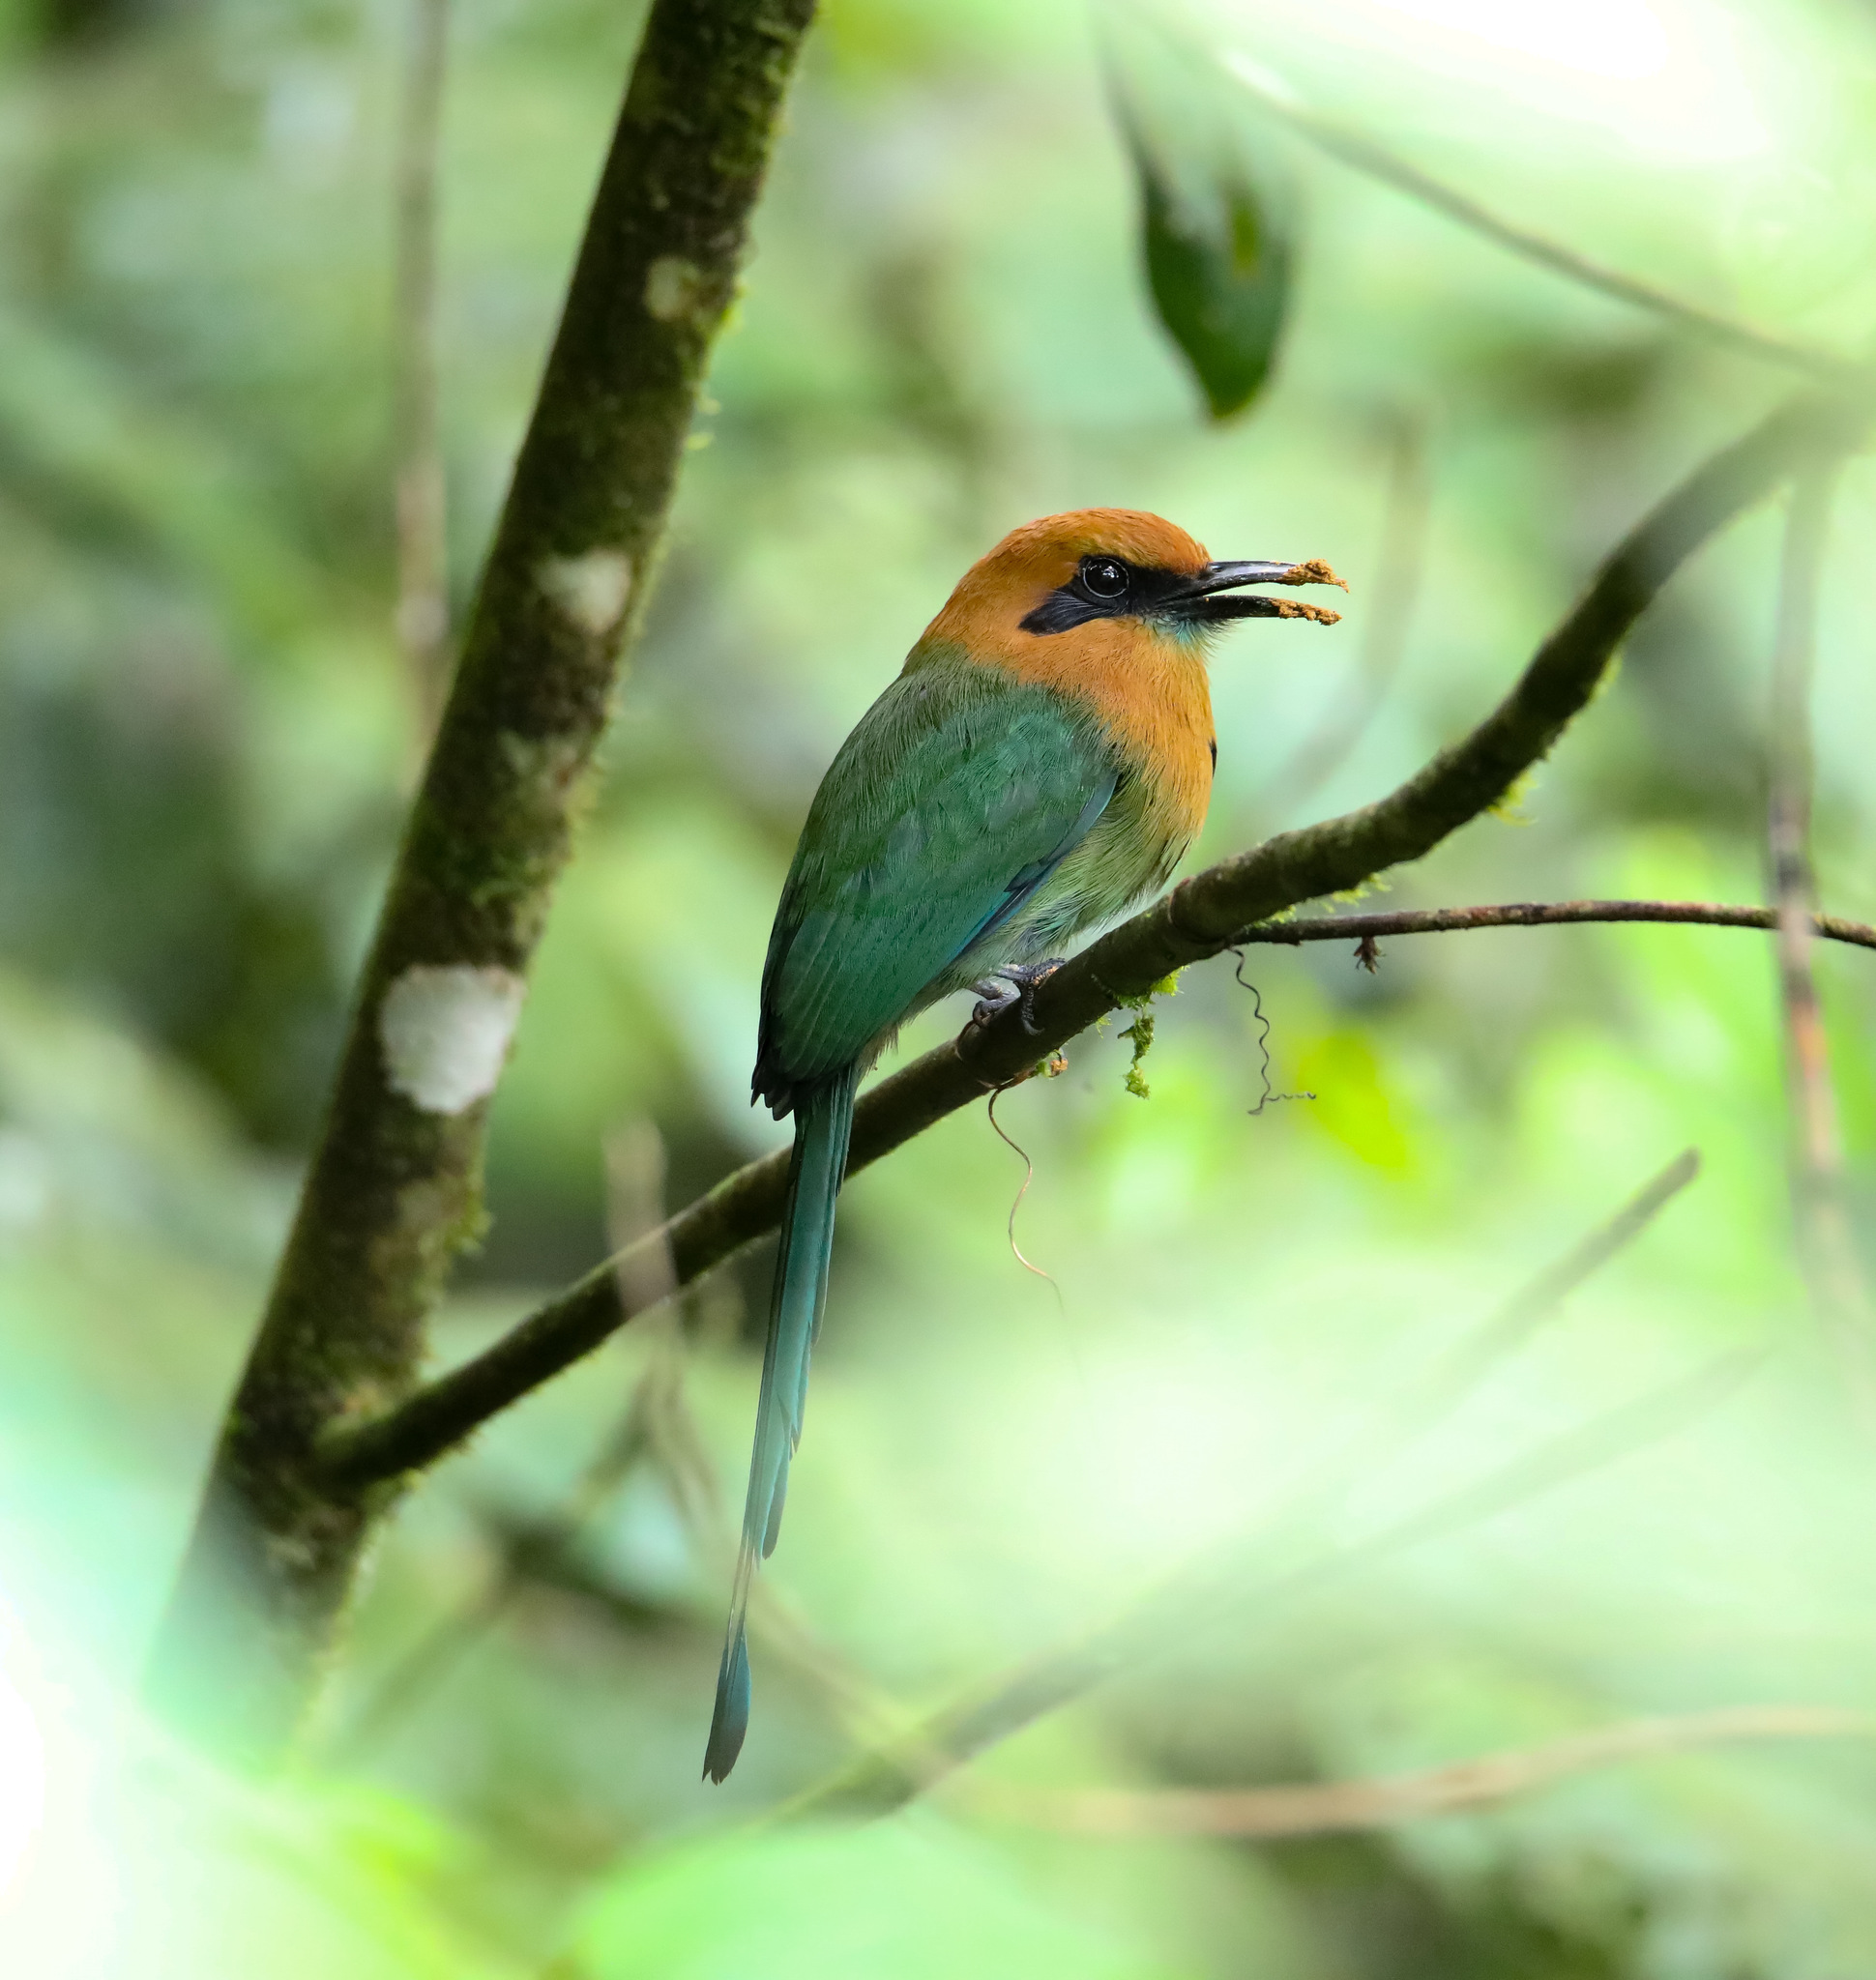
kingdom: Animalia
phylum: Chordata
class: Aves
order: Coraciiformes
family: Momotidae
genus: Electron
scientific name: Electron platyrhynchum
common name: Broad-billed motmot
